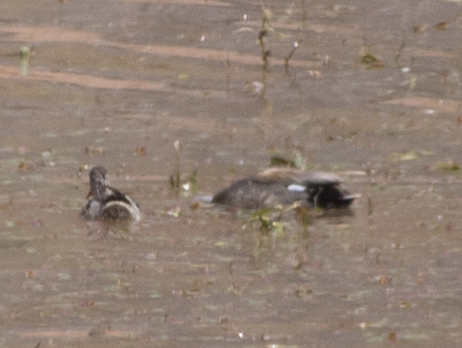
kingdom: Animalia
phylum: Chordata
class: Aves
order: Anseriformes
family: Anatidae
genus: Mareca
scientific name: Mareca strepera
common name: Gadwall
